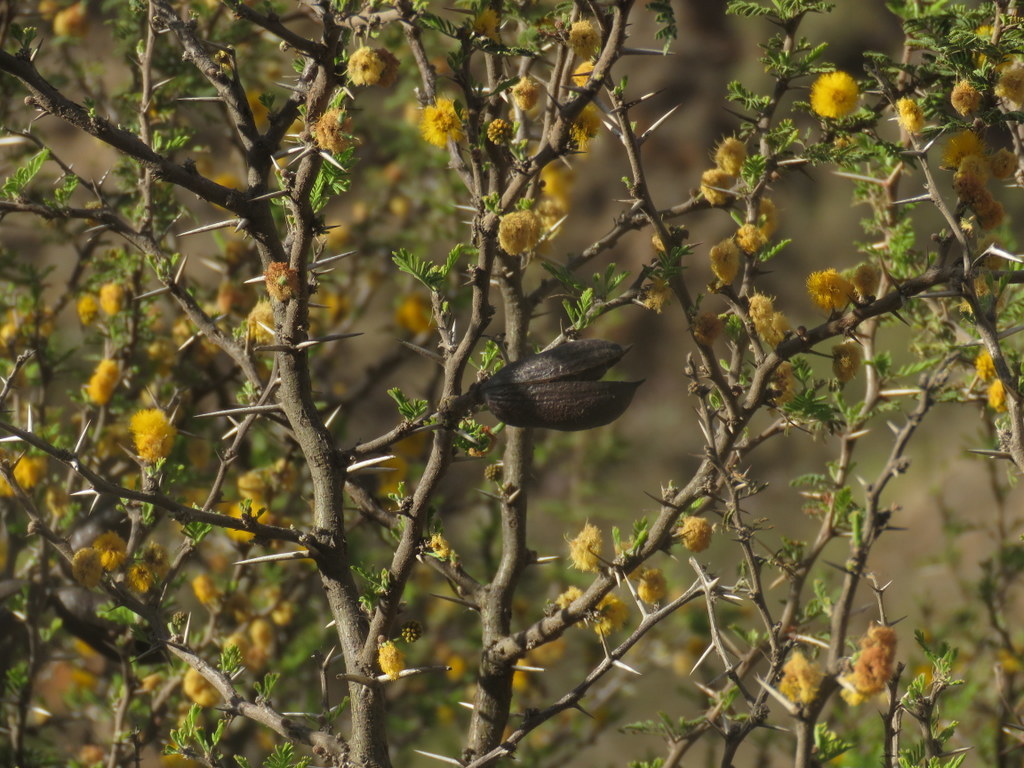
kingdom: Plantae
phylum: Tracheophyta
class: Magnoliopsida
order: Fabales
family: Fabaceae
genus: Vachellia
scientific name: Vachellia caven
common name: Roman cassie
